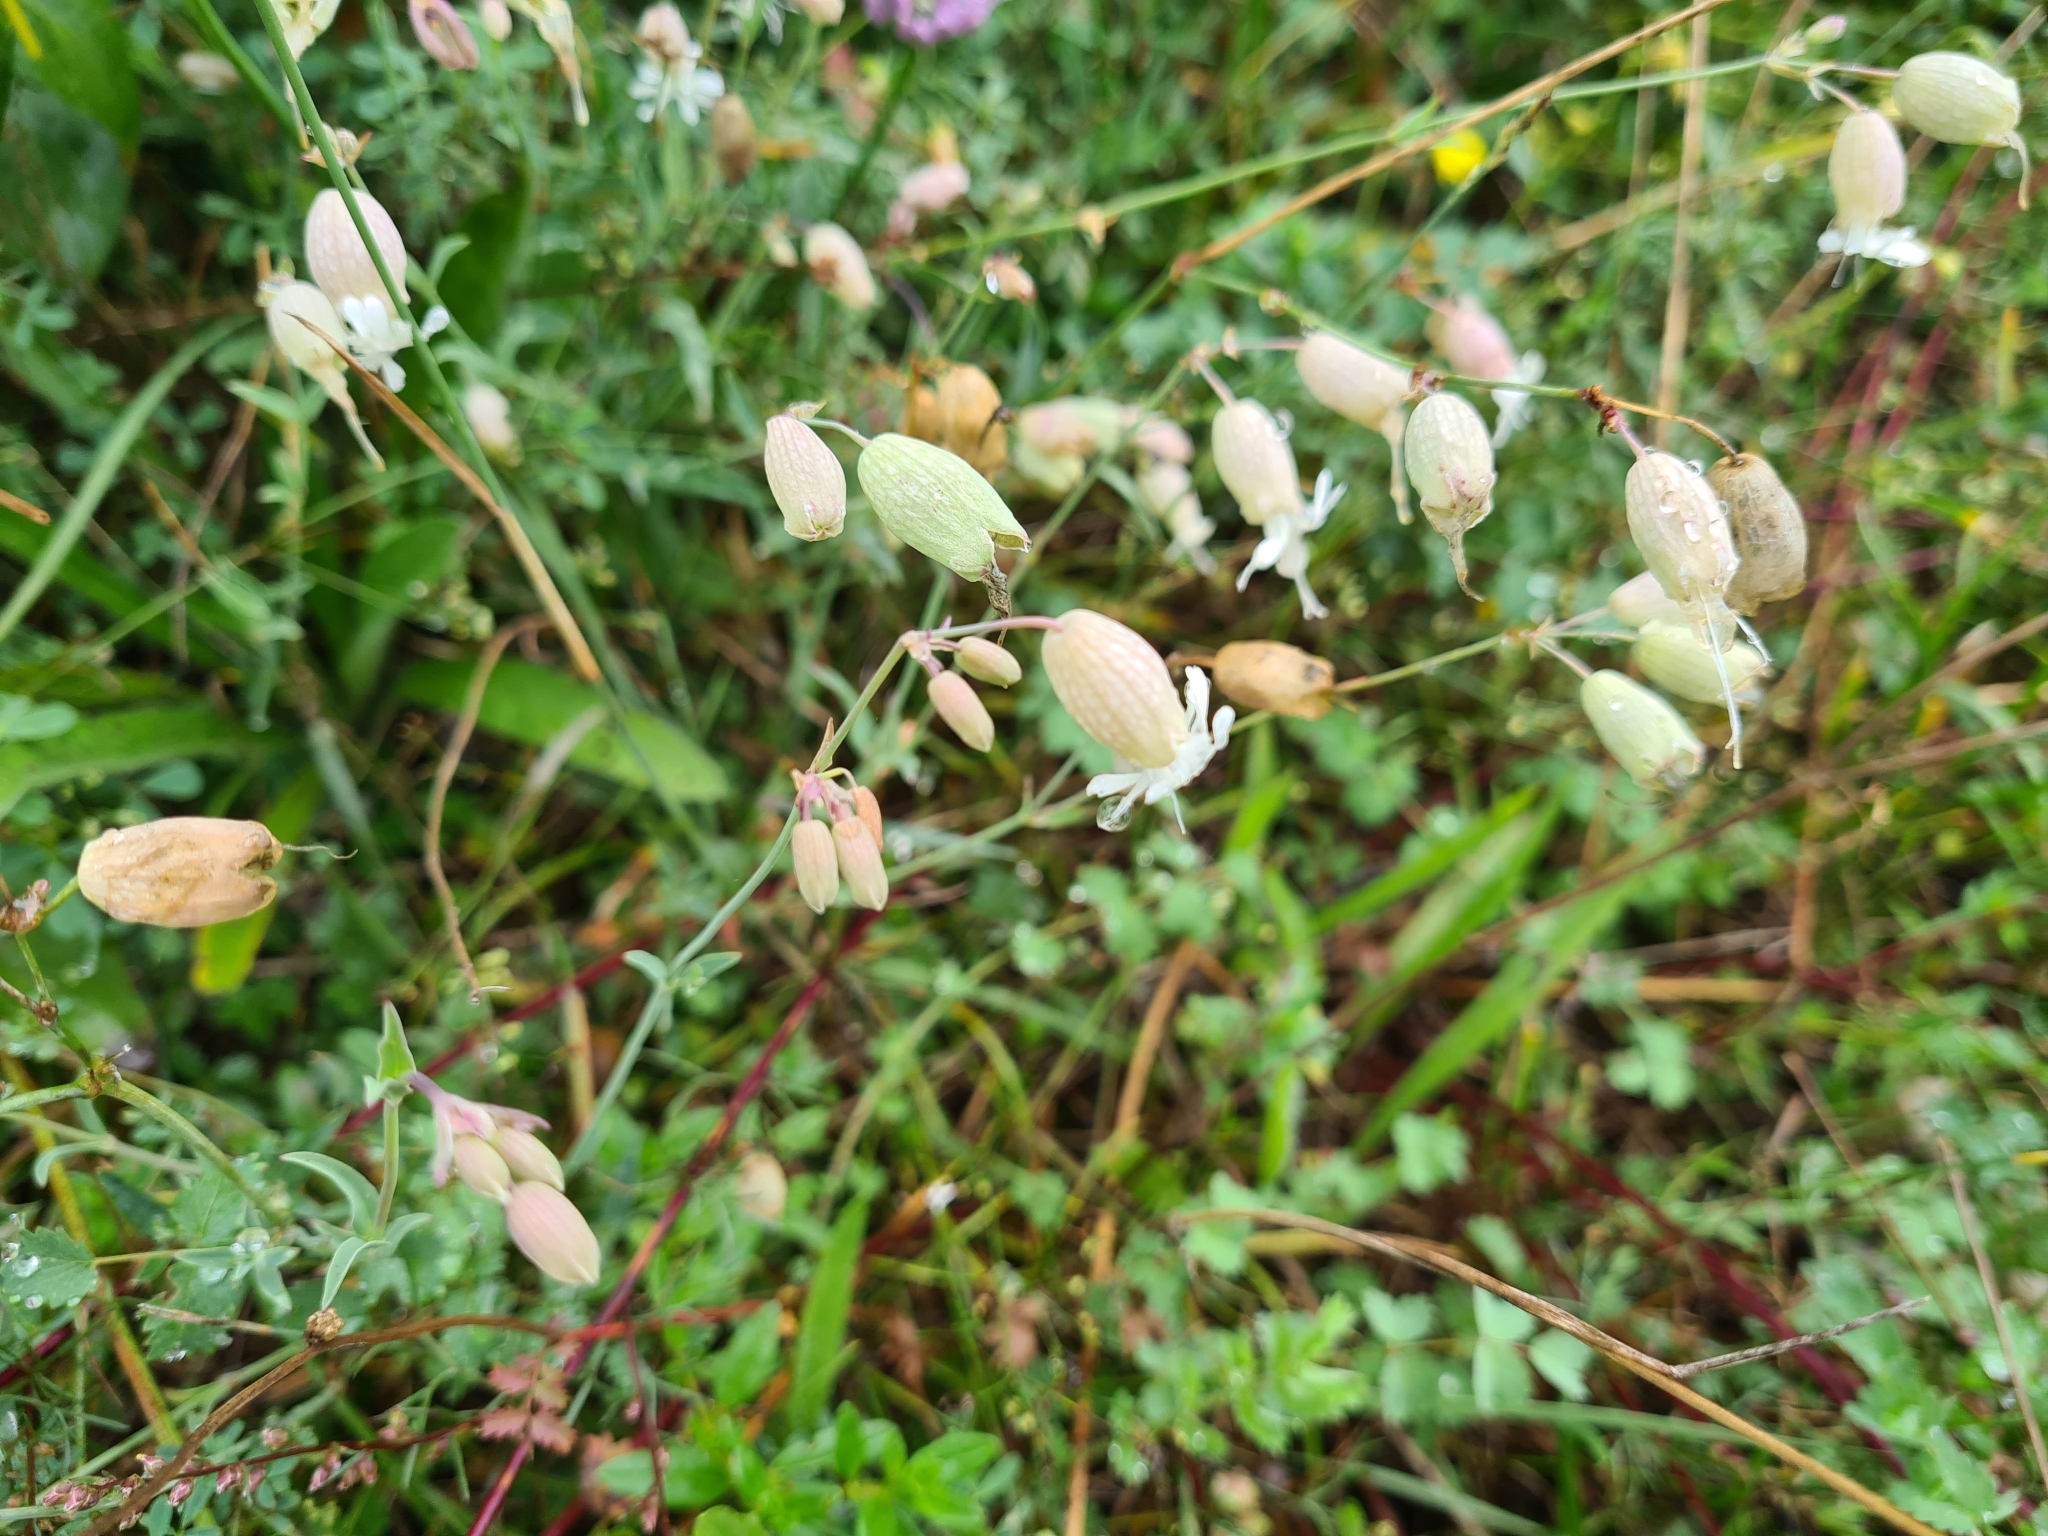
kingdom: Plantae
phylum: Tracheophyta
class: Magnoliopsida
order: Caryophyllales
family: Caryophyllaceae
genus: Silene
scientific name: Silene vulgaris
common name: Bladder campion
